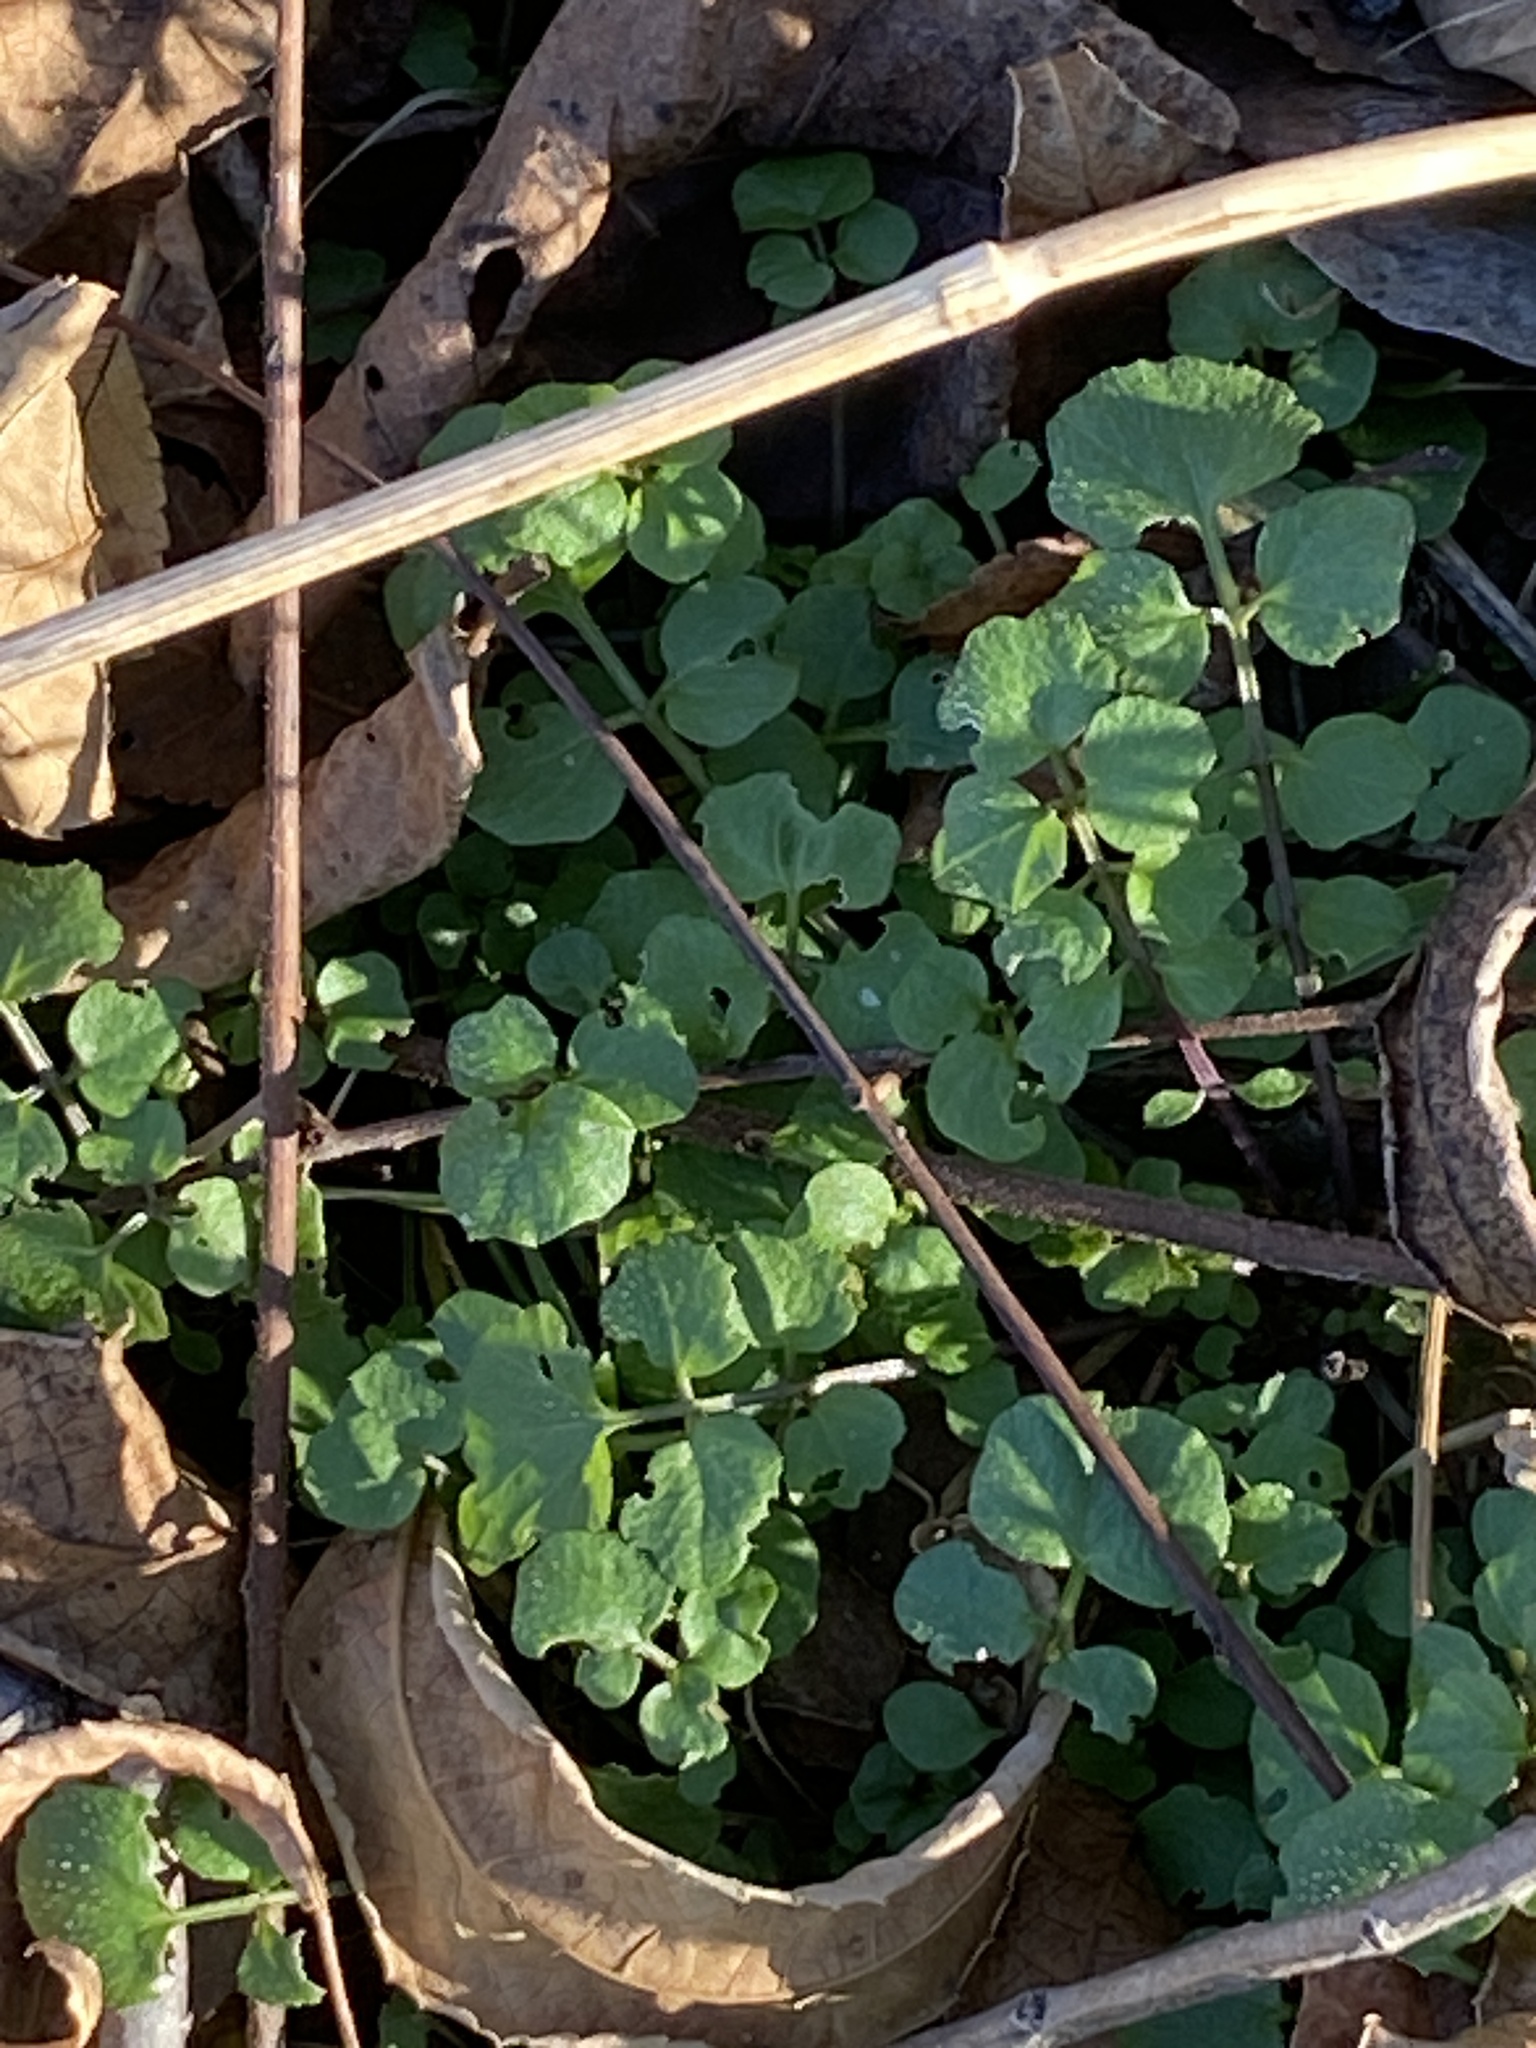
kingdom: Plantae
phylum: Tracheophyta
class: Magnoliopsida
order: Brassicales
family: Brassicaceae
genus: Cardamine
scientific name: Cardamine hirsuta
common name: Hairy bittercress
